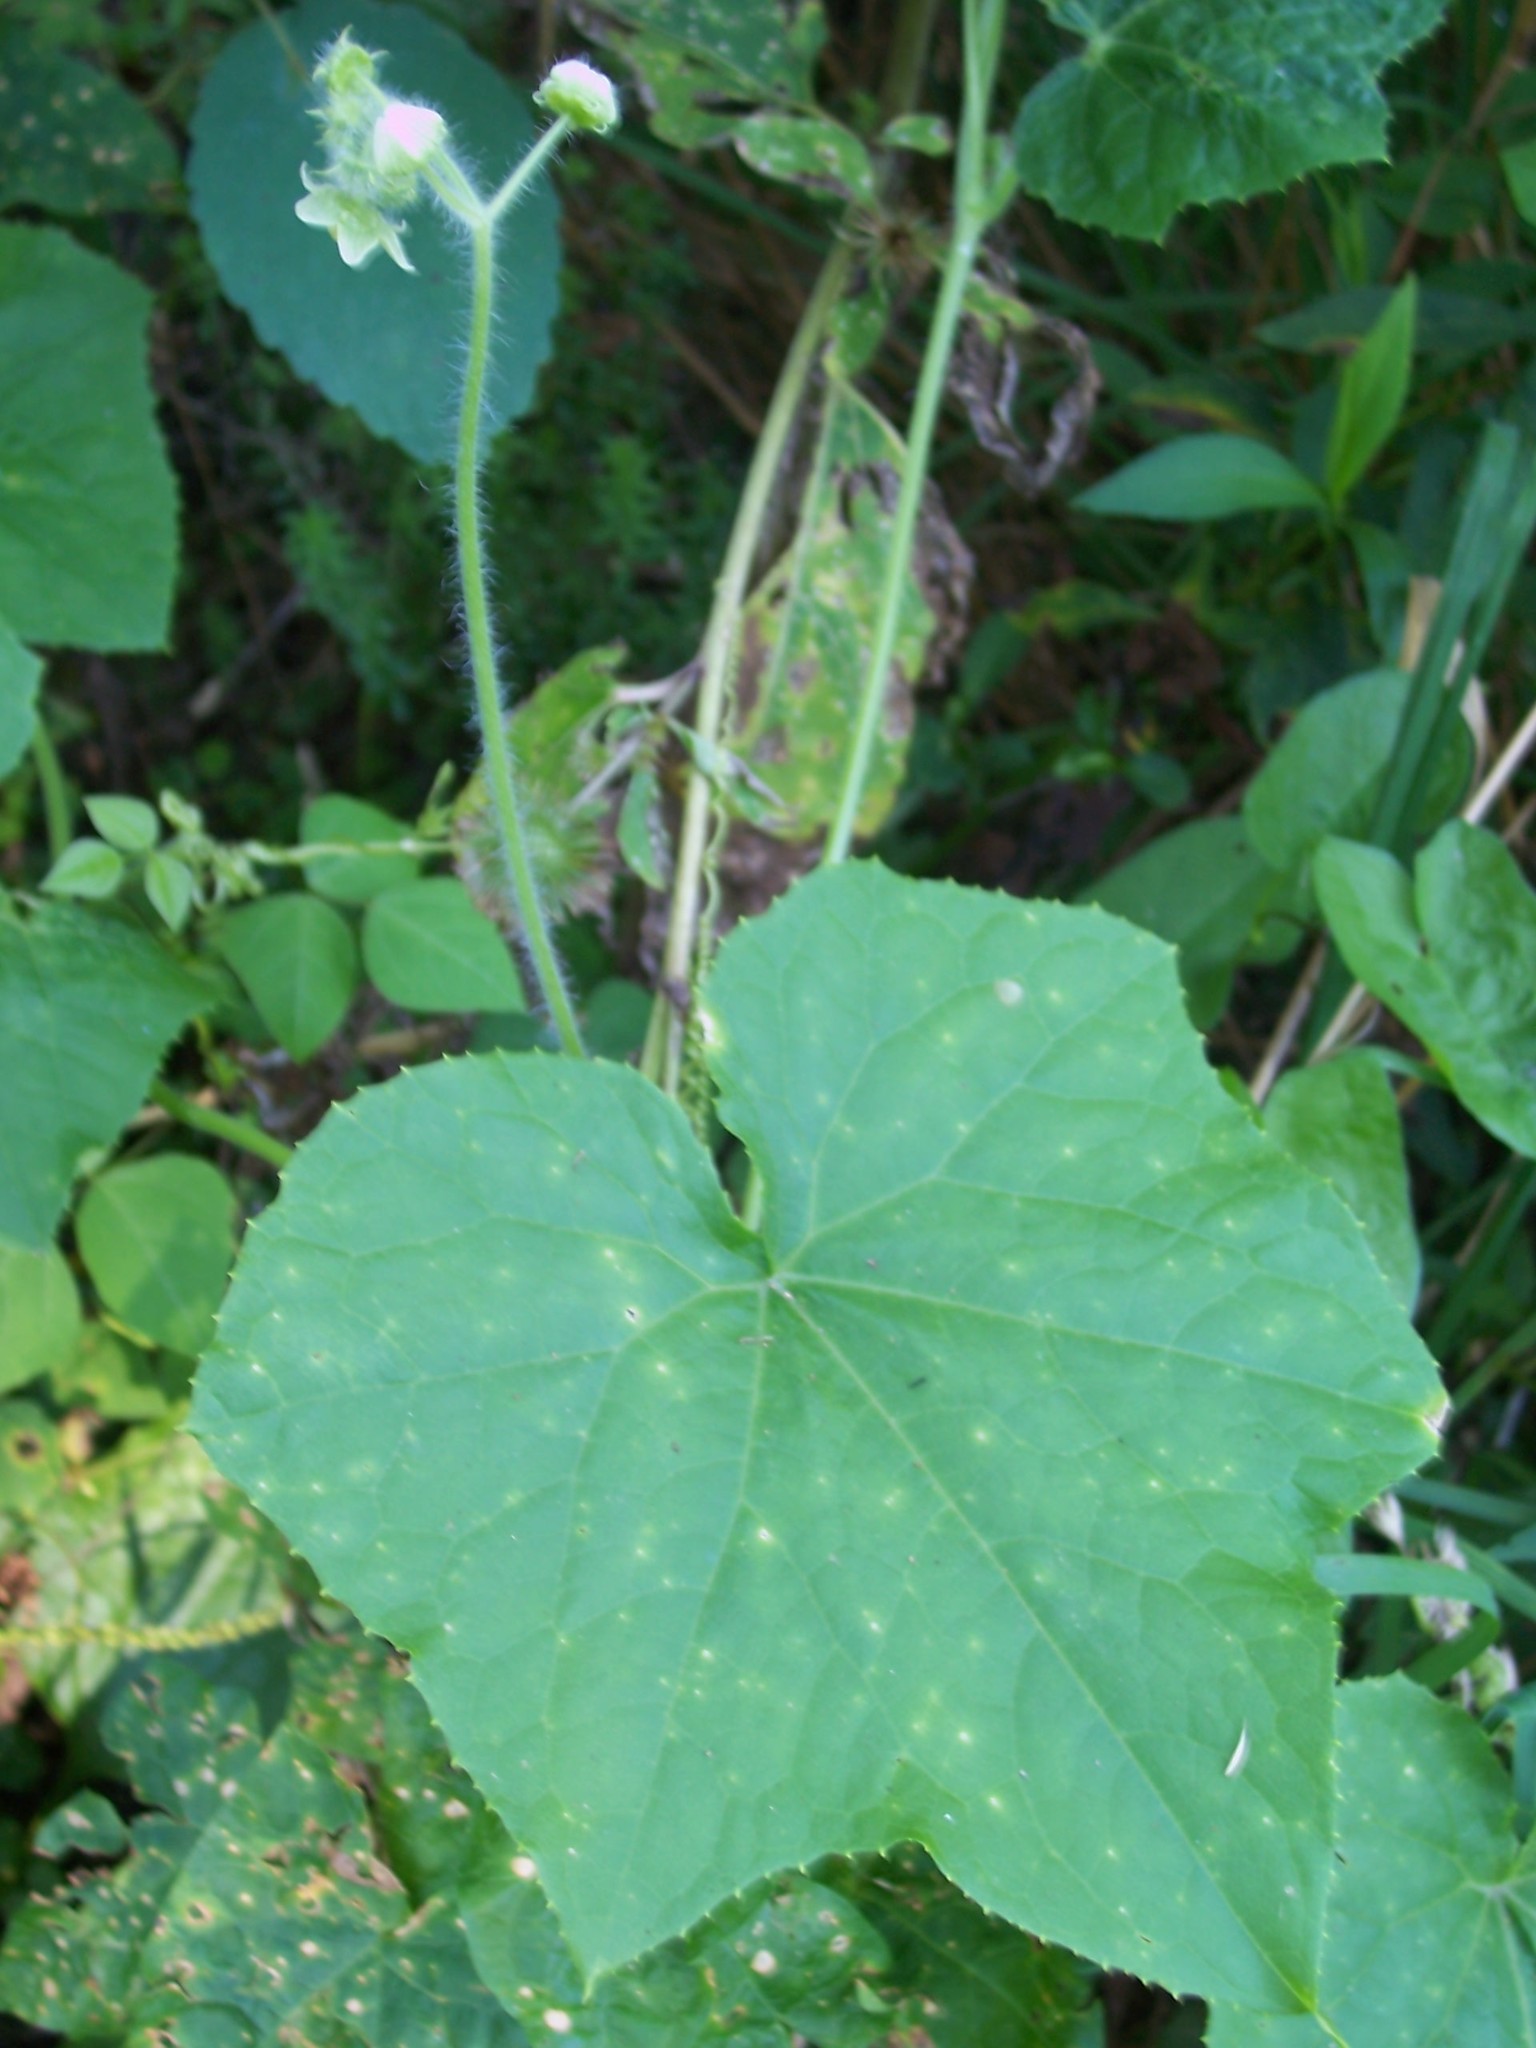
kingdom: Plantae
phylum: Tracheophyta
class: Magnoliopsida
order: Cucurbitales
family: Cucurbitaceae
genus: Sicyos
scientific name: Sicyos angulatus
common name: Angled burr cucumber
